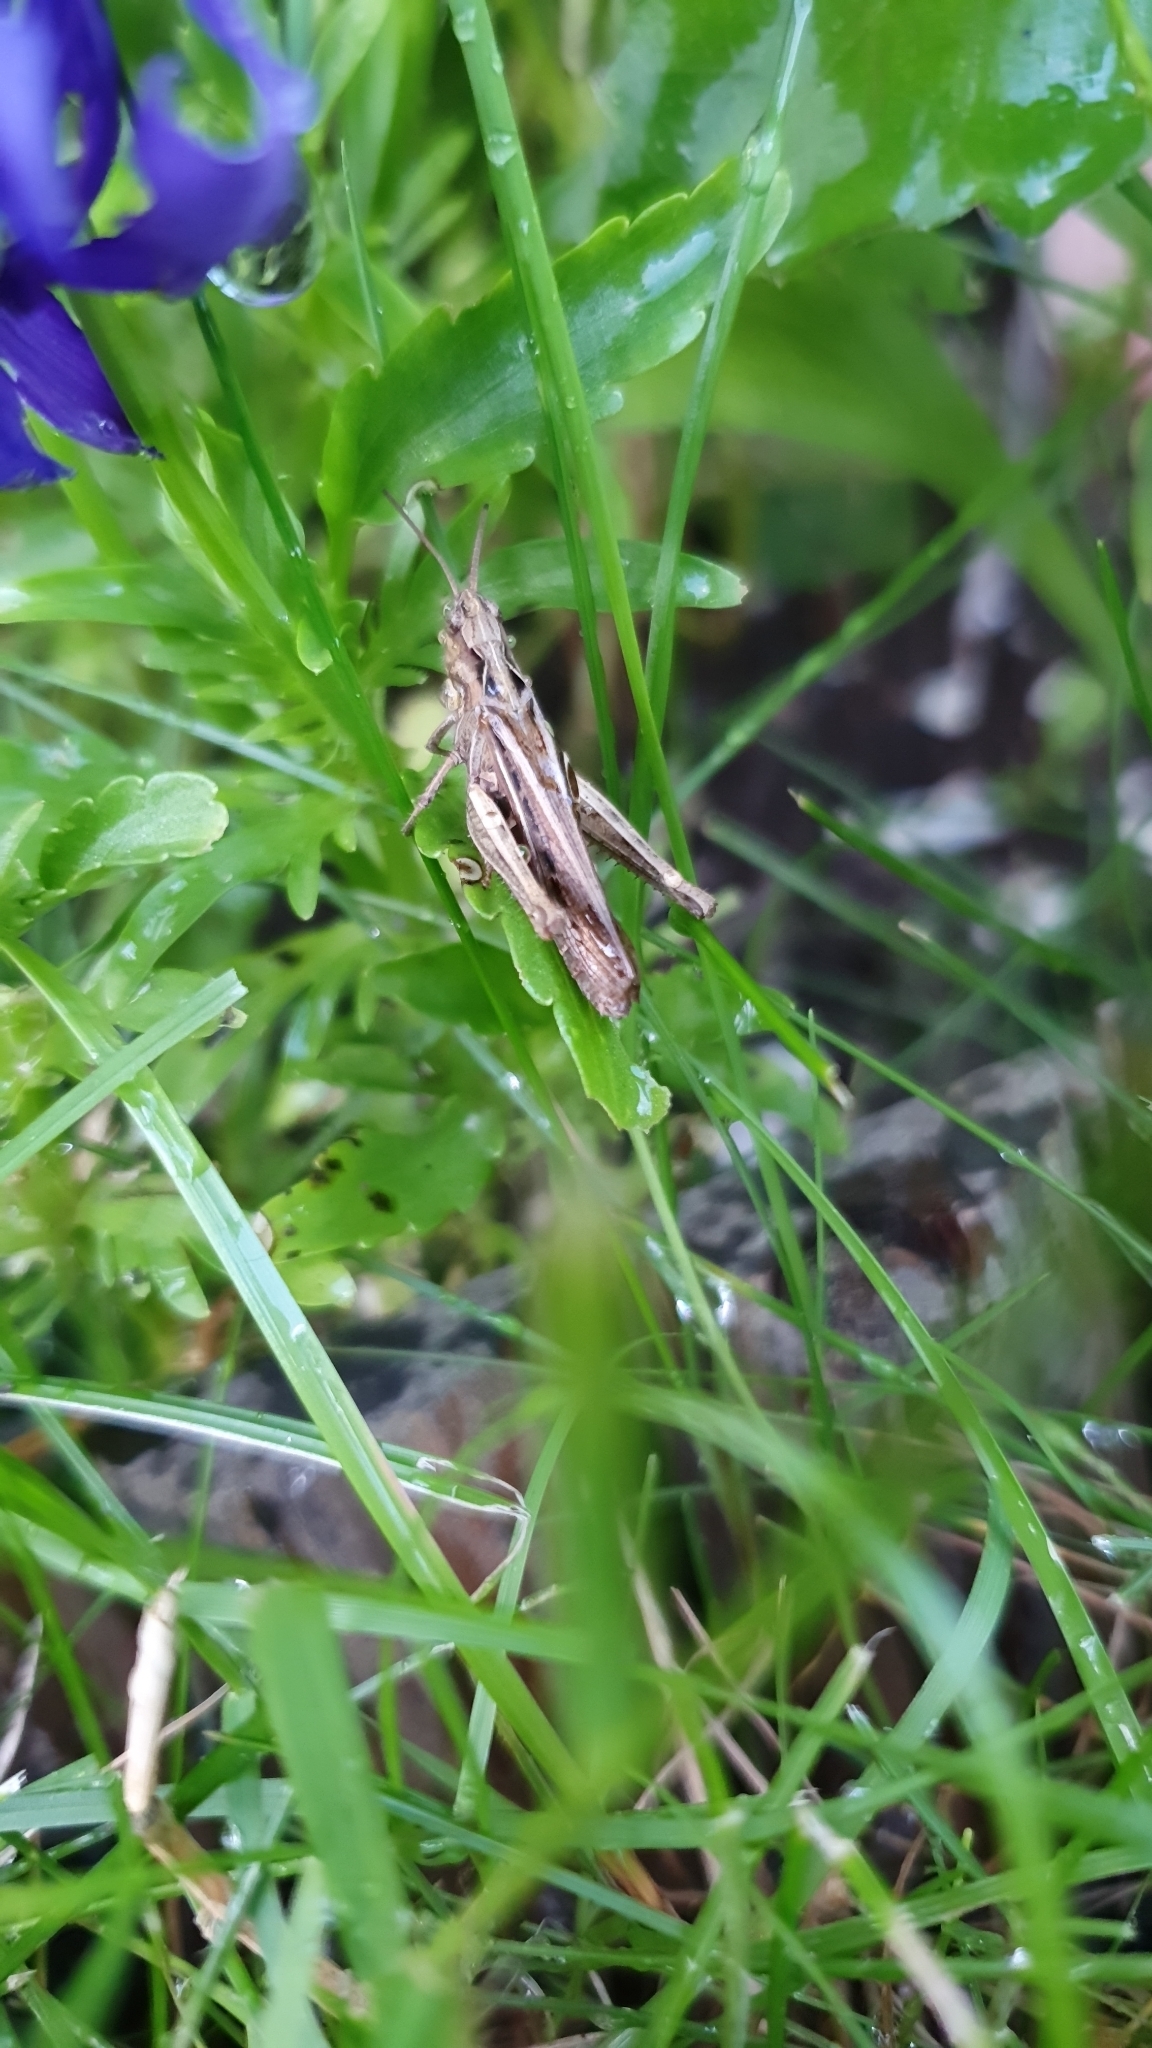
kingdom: Animalia
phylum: Arthropoda
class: Insecta
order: Orthoptera
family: Acrididae
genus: Chorthippus
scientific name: Chorthippus brunneus
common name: Field grasshopper
